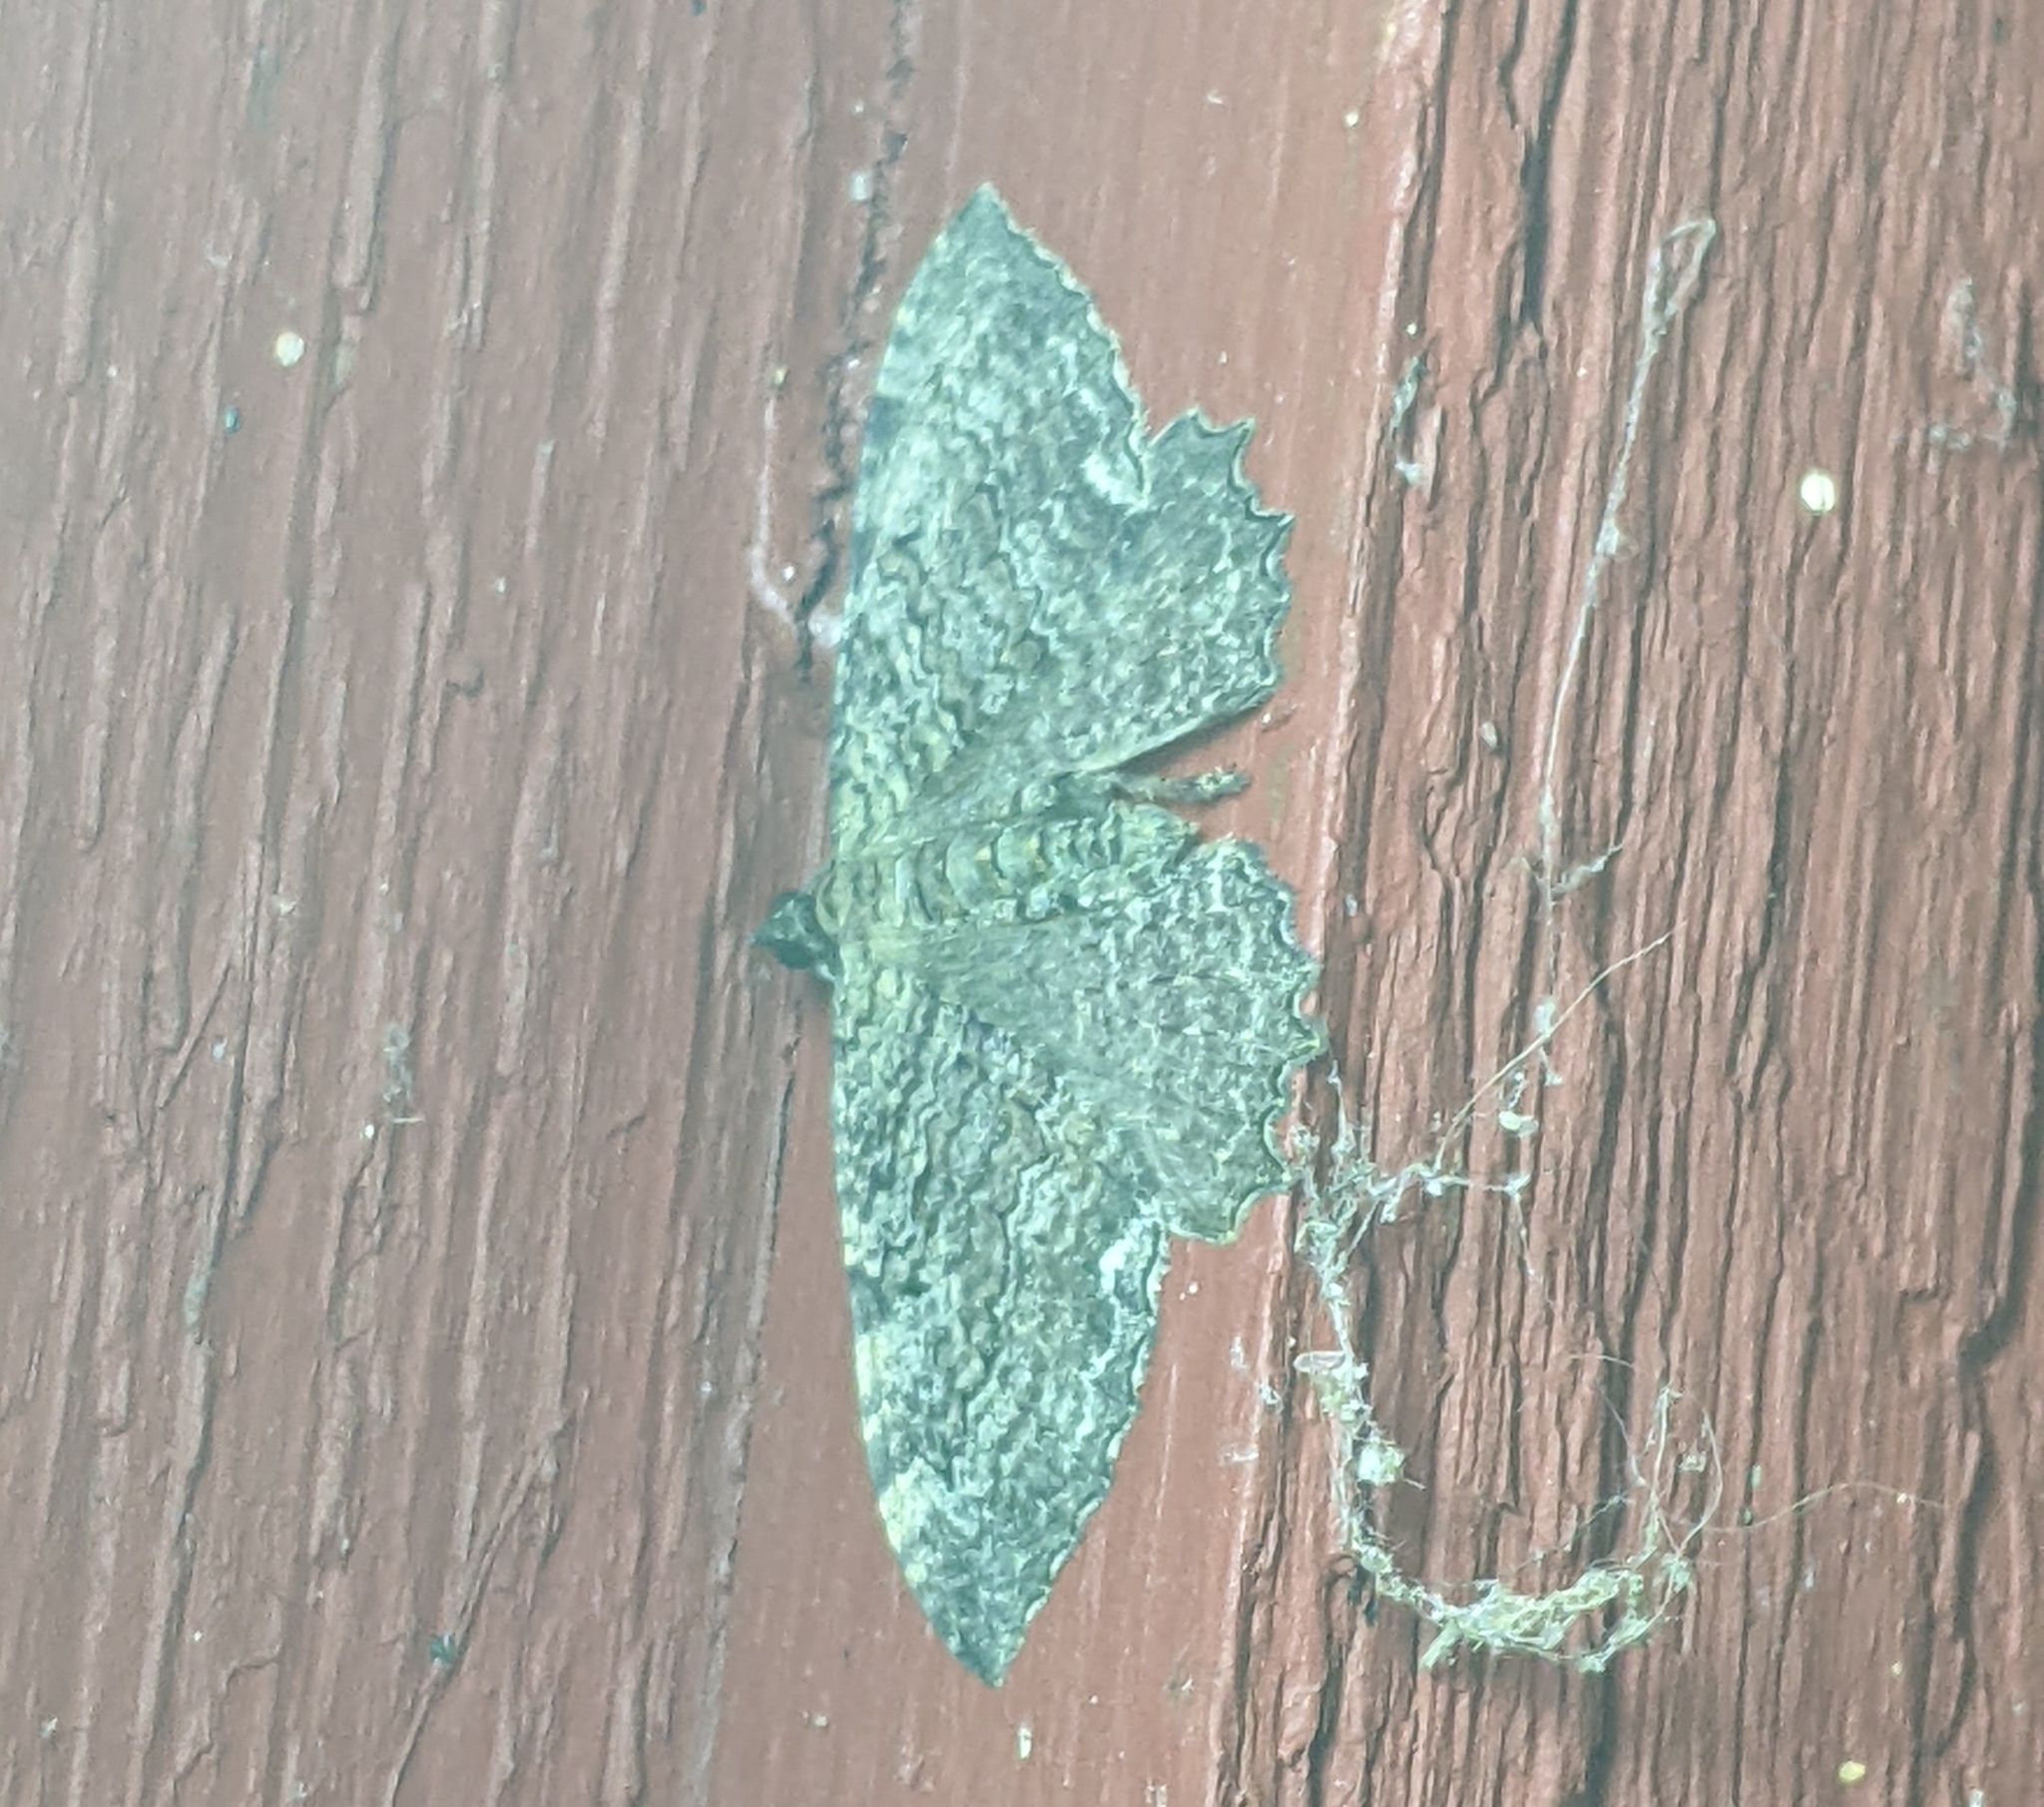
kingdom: Animalia
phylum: Arthropoda
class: Insecta
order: Lepidoptera
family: Geometridae
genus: Rheumaptera
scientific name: Rheumaptera
